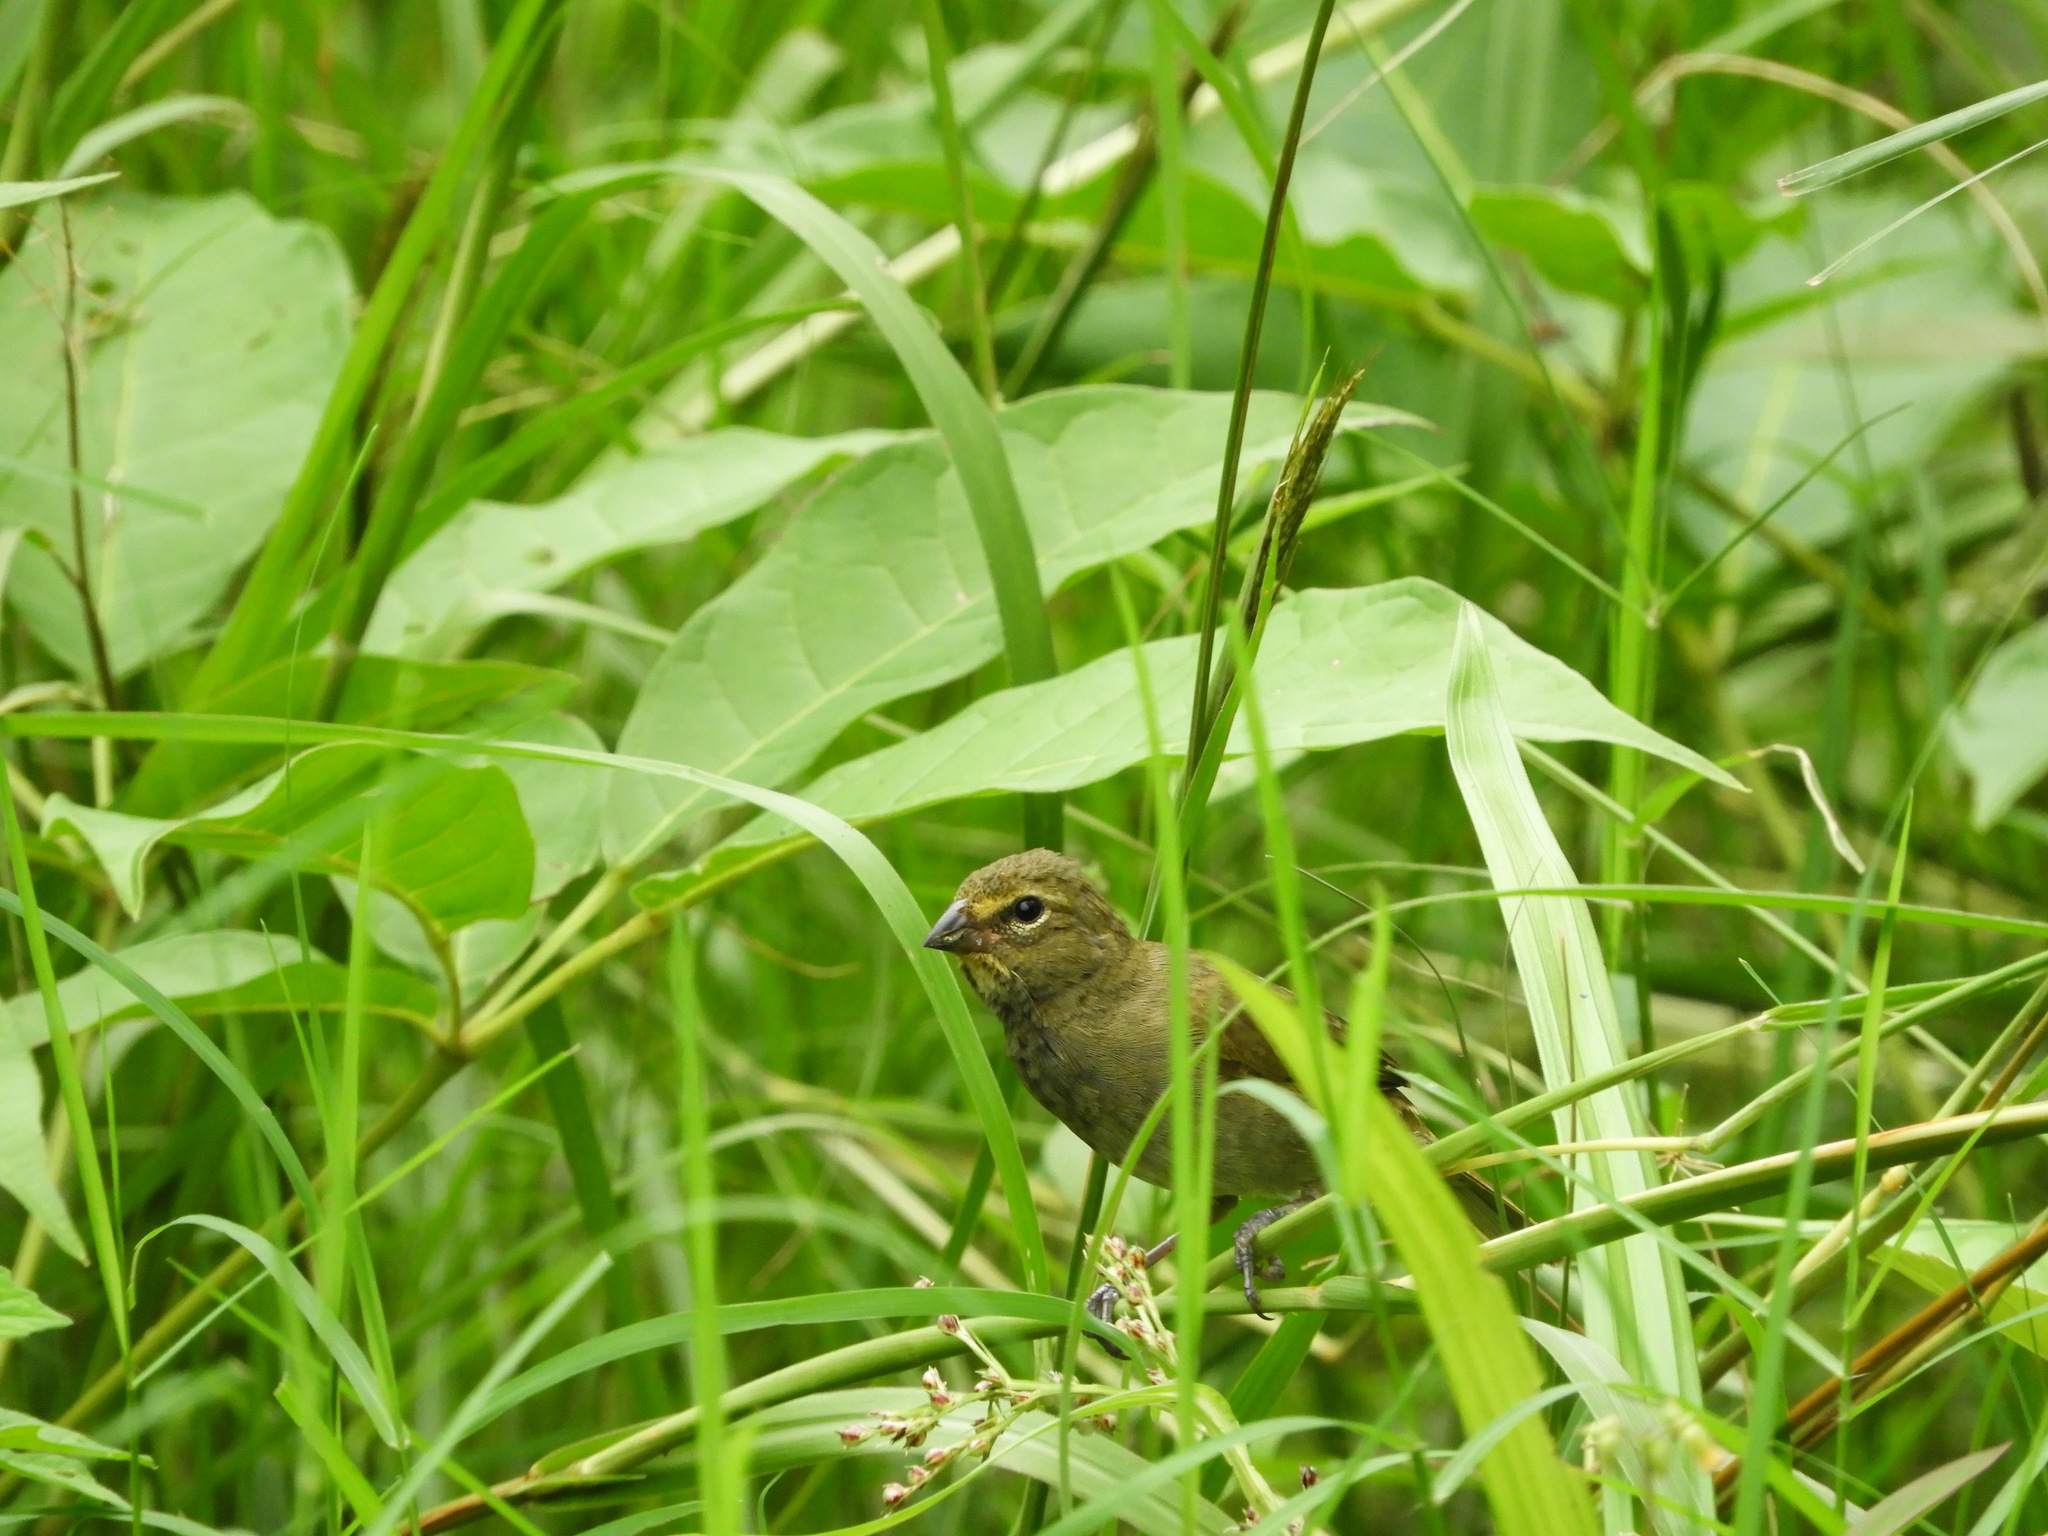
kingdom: Animalia
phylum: Chordata
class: Aves
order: Passeriformes
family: Thraupidae
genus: Tiaris
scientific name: Tiaris olivaceus
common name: Yellow-faced grassquit
